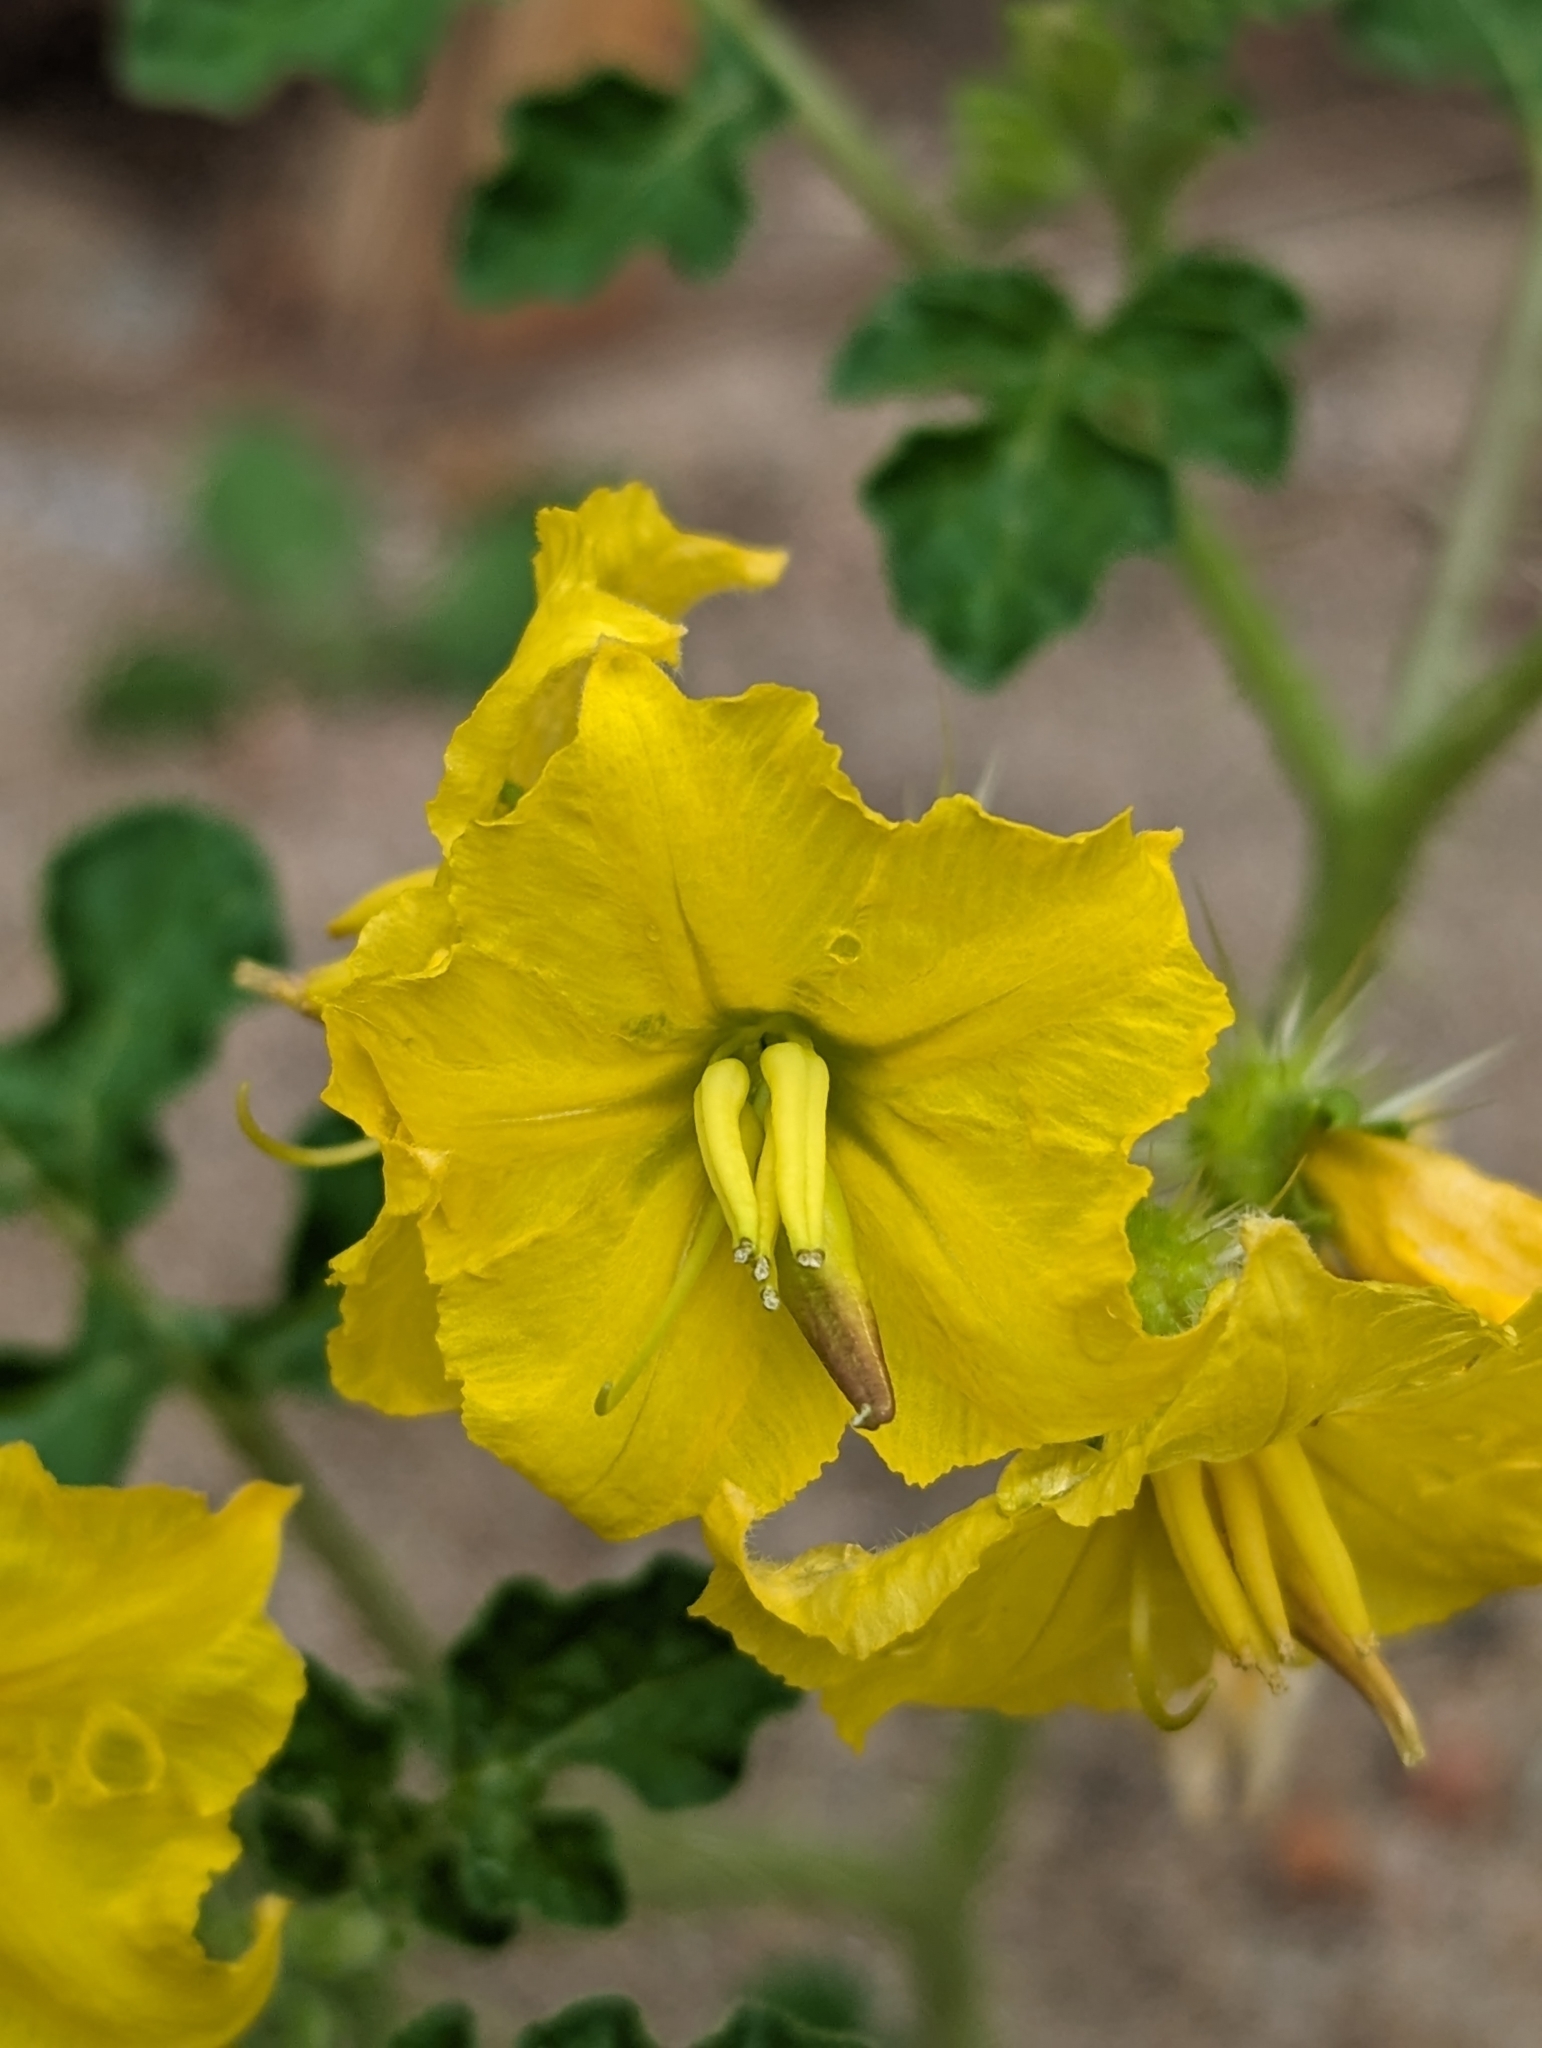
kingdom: Plantae
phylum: Tracheophyta
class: Magnoliopsida
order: Solanales
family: Solanaceae
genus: Solanum
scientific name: Solanum angustifolium
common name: Buffalobur nightshade
